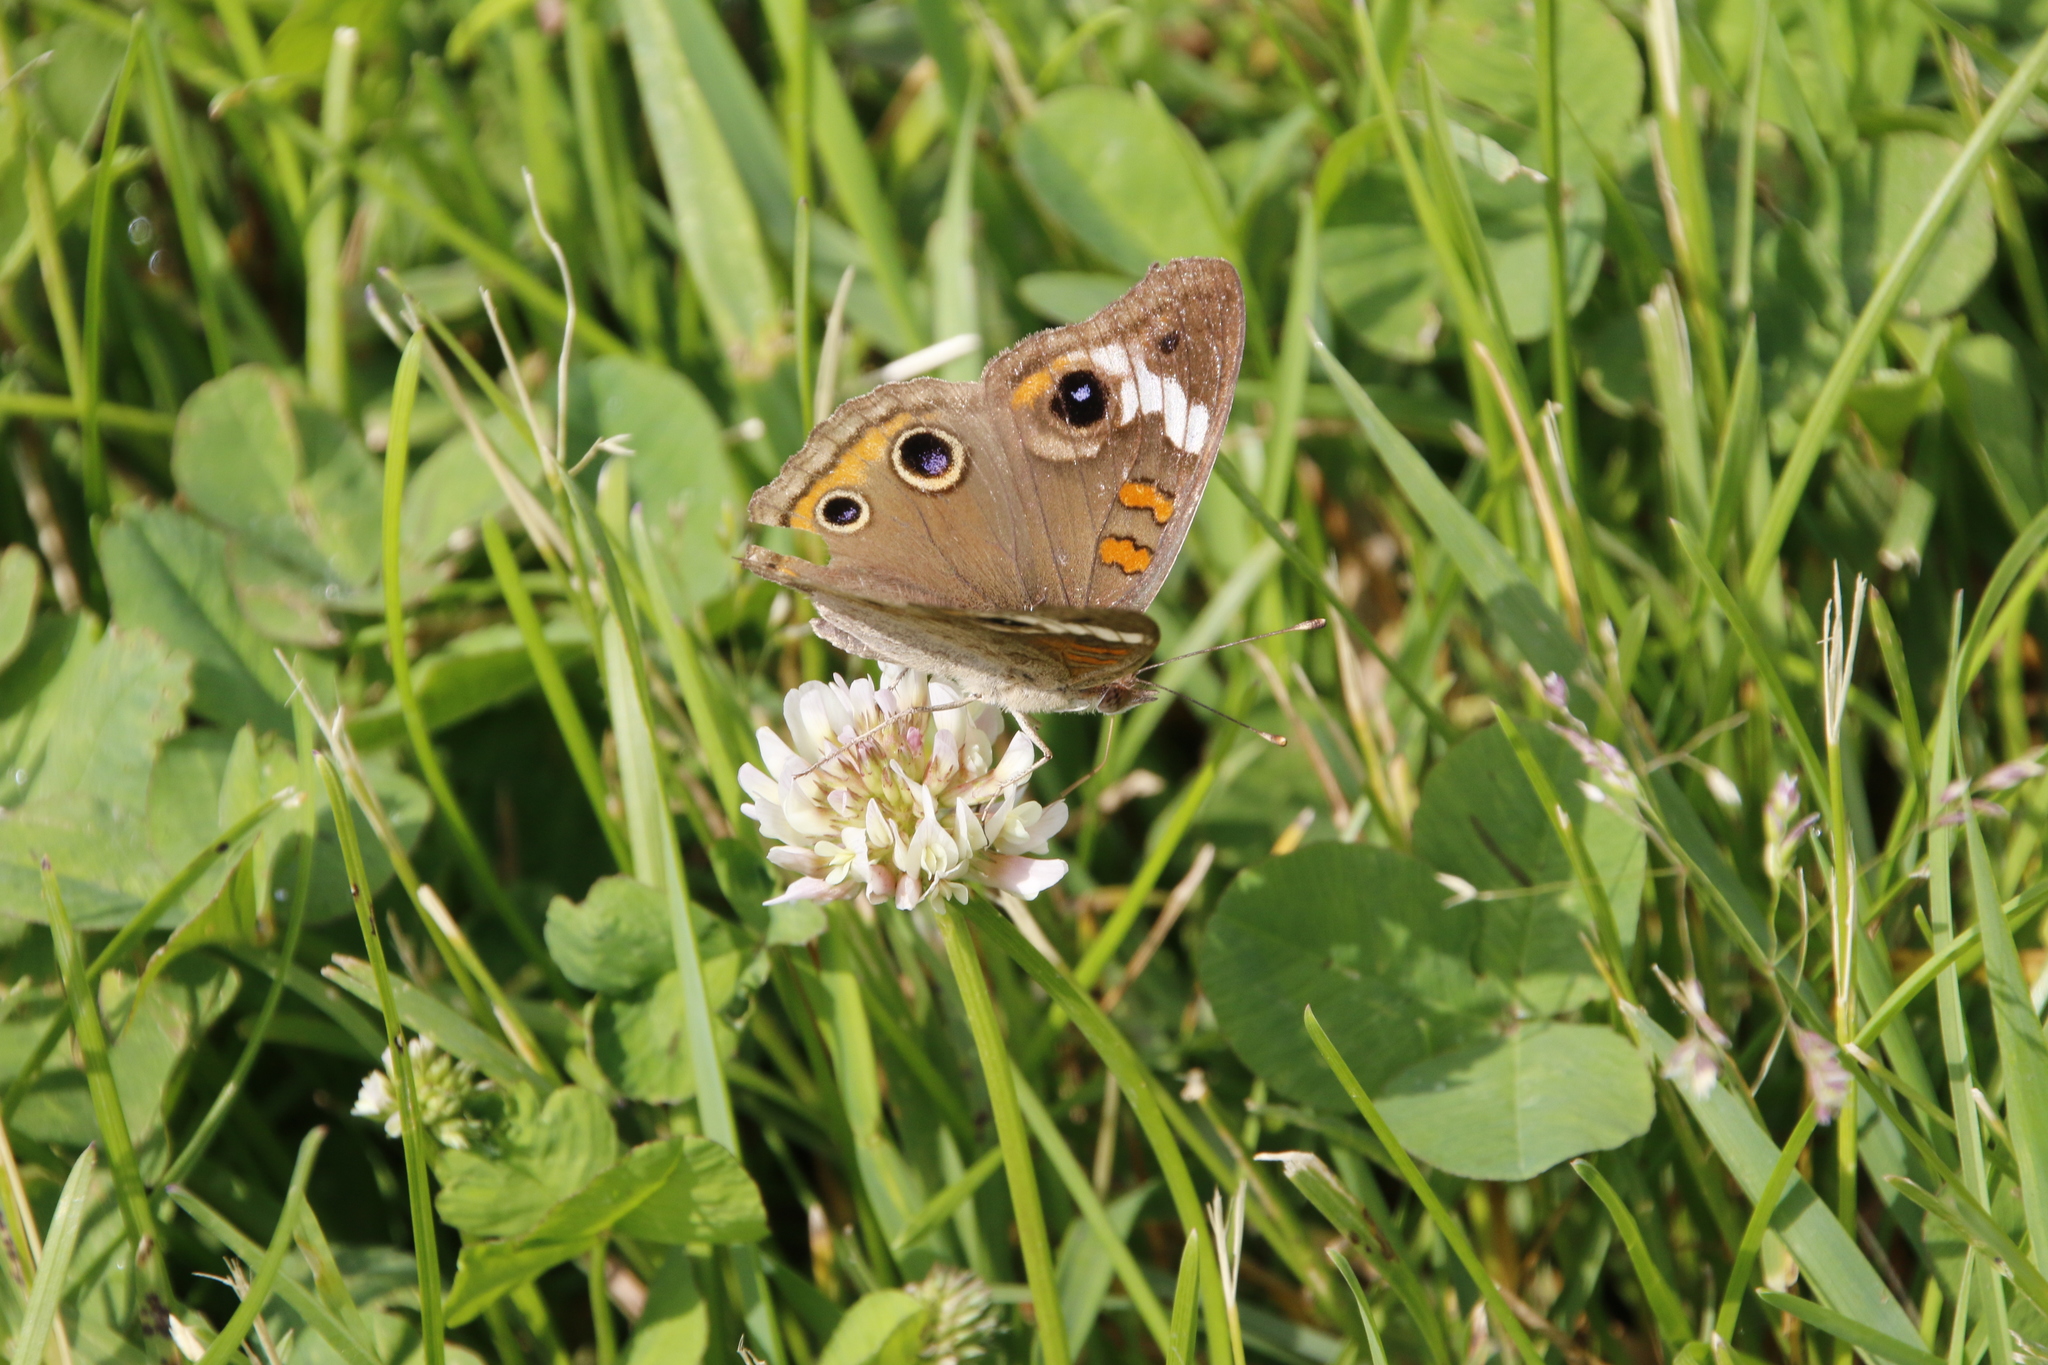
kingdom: Animalia
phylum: Arthropoda
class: Insecta
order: Lepidoptera
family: Nymphalidae
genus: Junonia
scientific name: Junonia coenia
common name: Common buckeye
